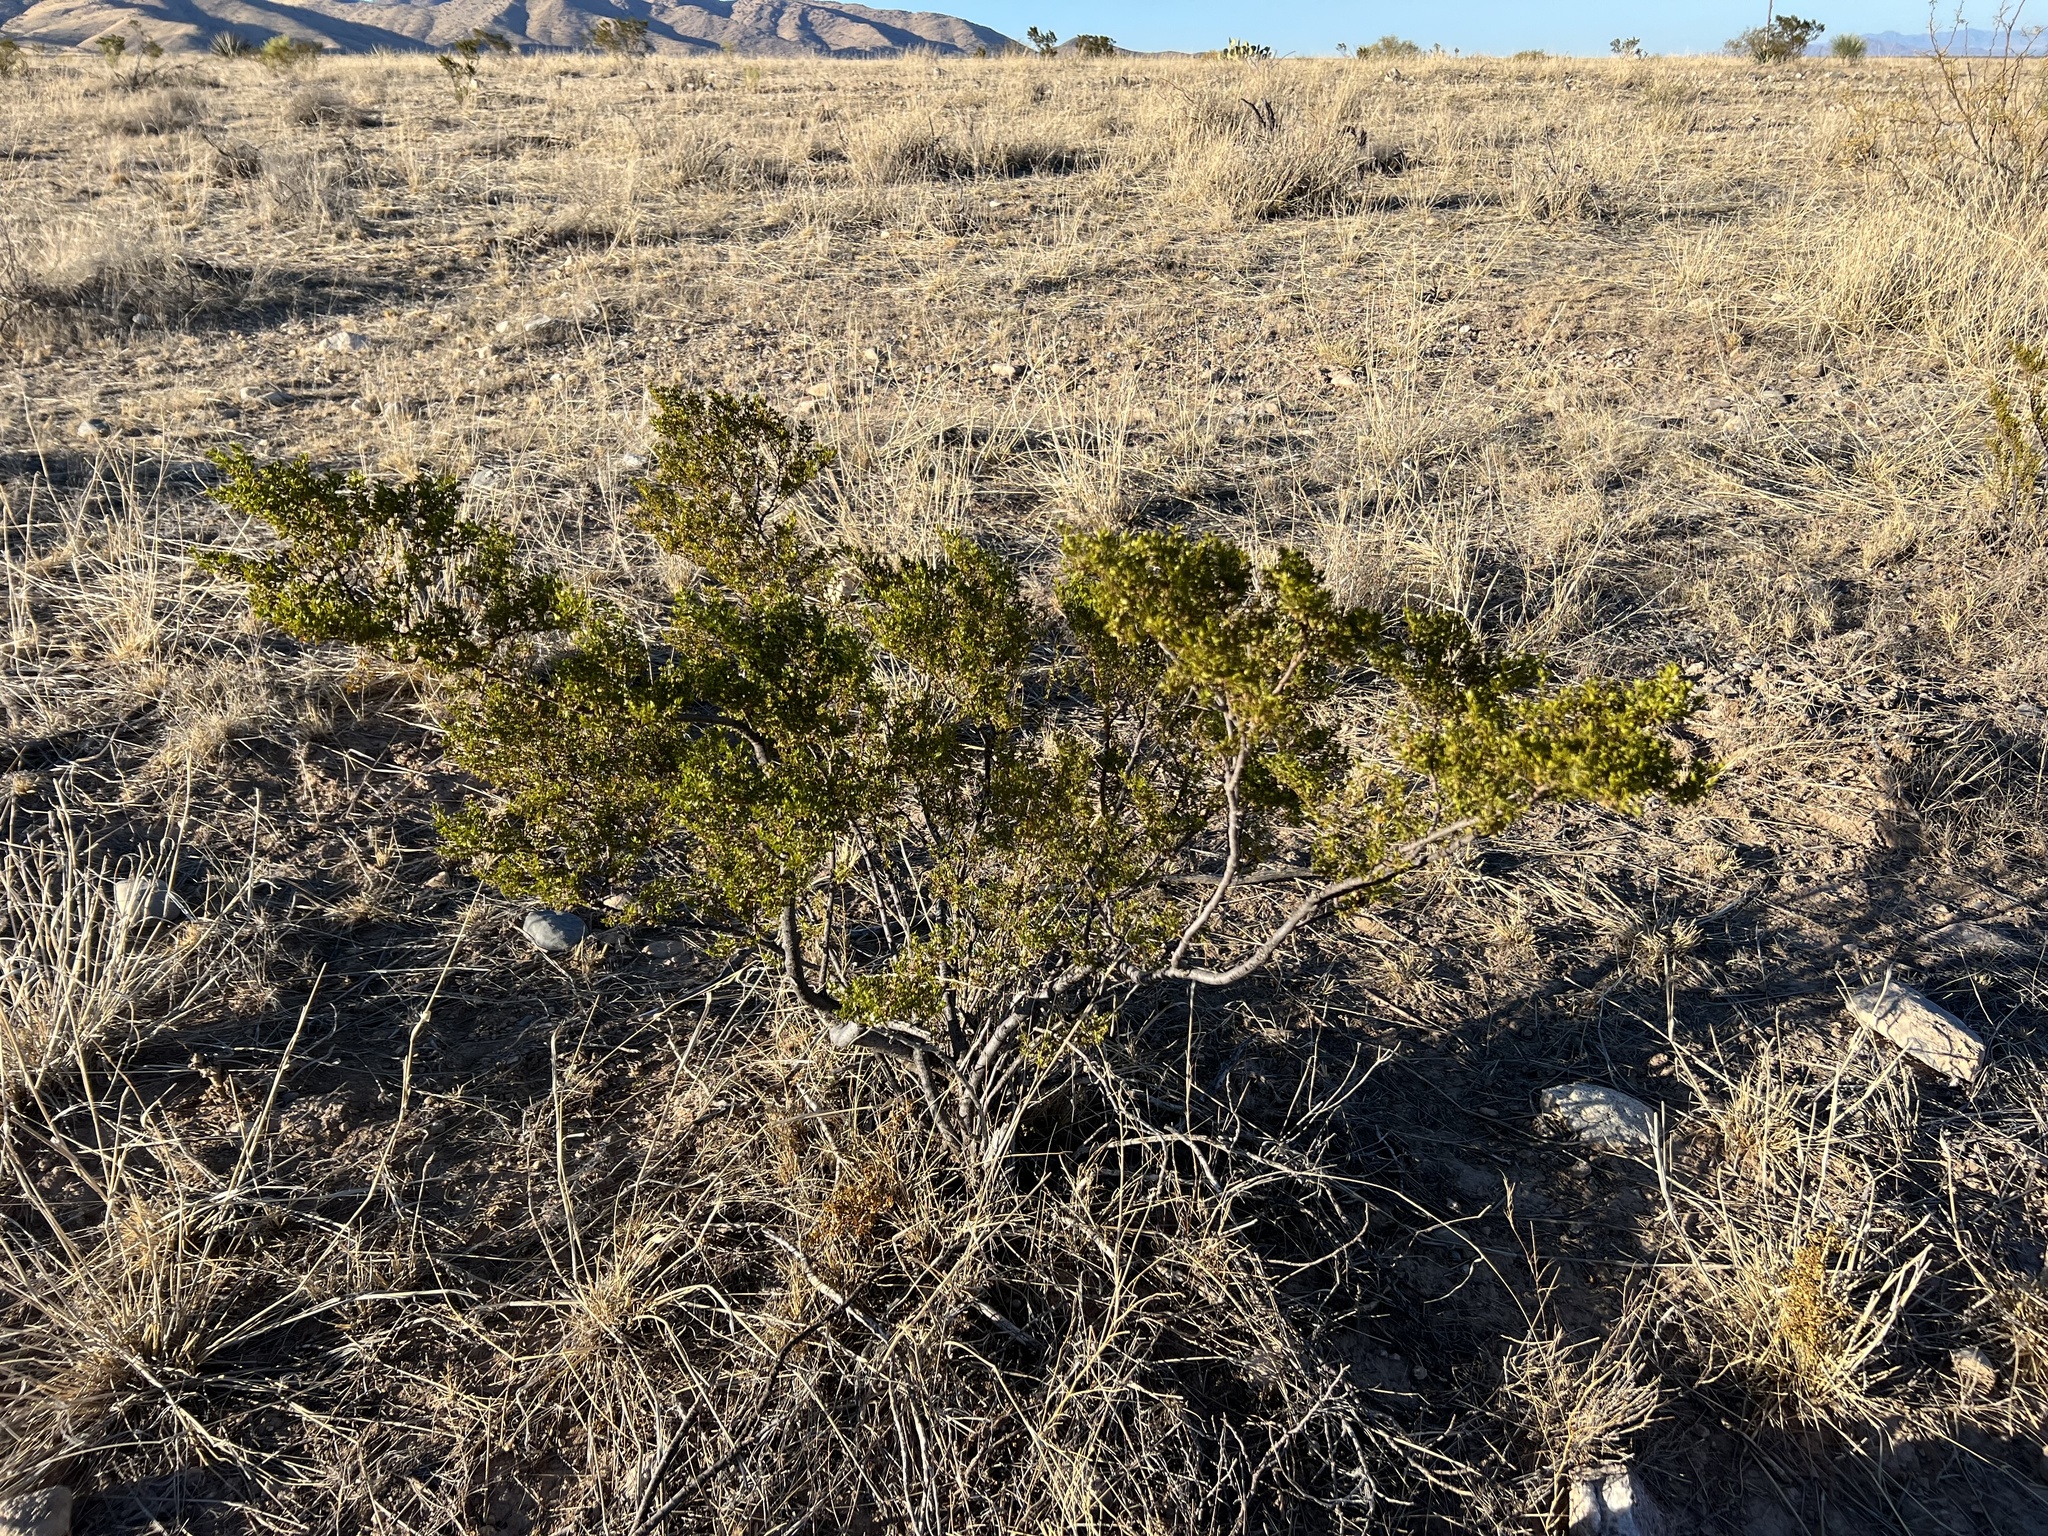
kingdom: Plantae
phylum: Tracheophyta
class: Magnoliopsida
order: Zygophyllales
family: Zygophyllaceae
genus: Larrea
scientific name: Larrea tridentata
